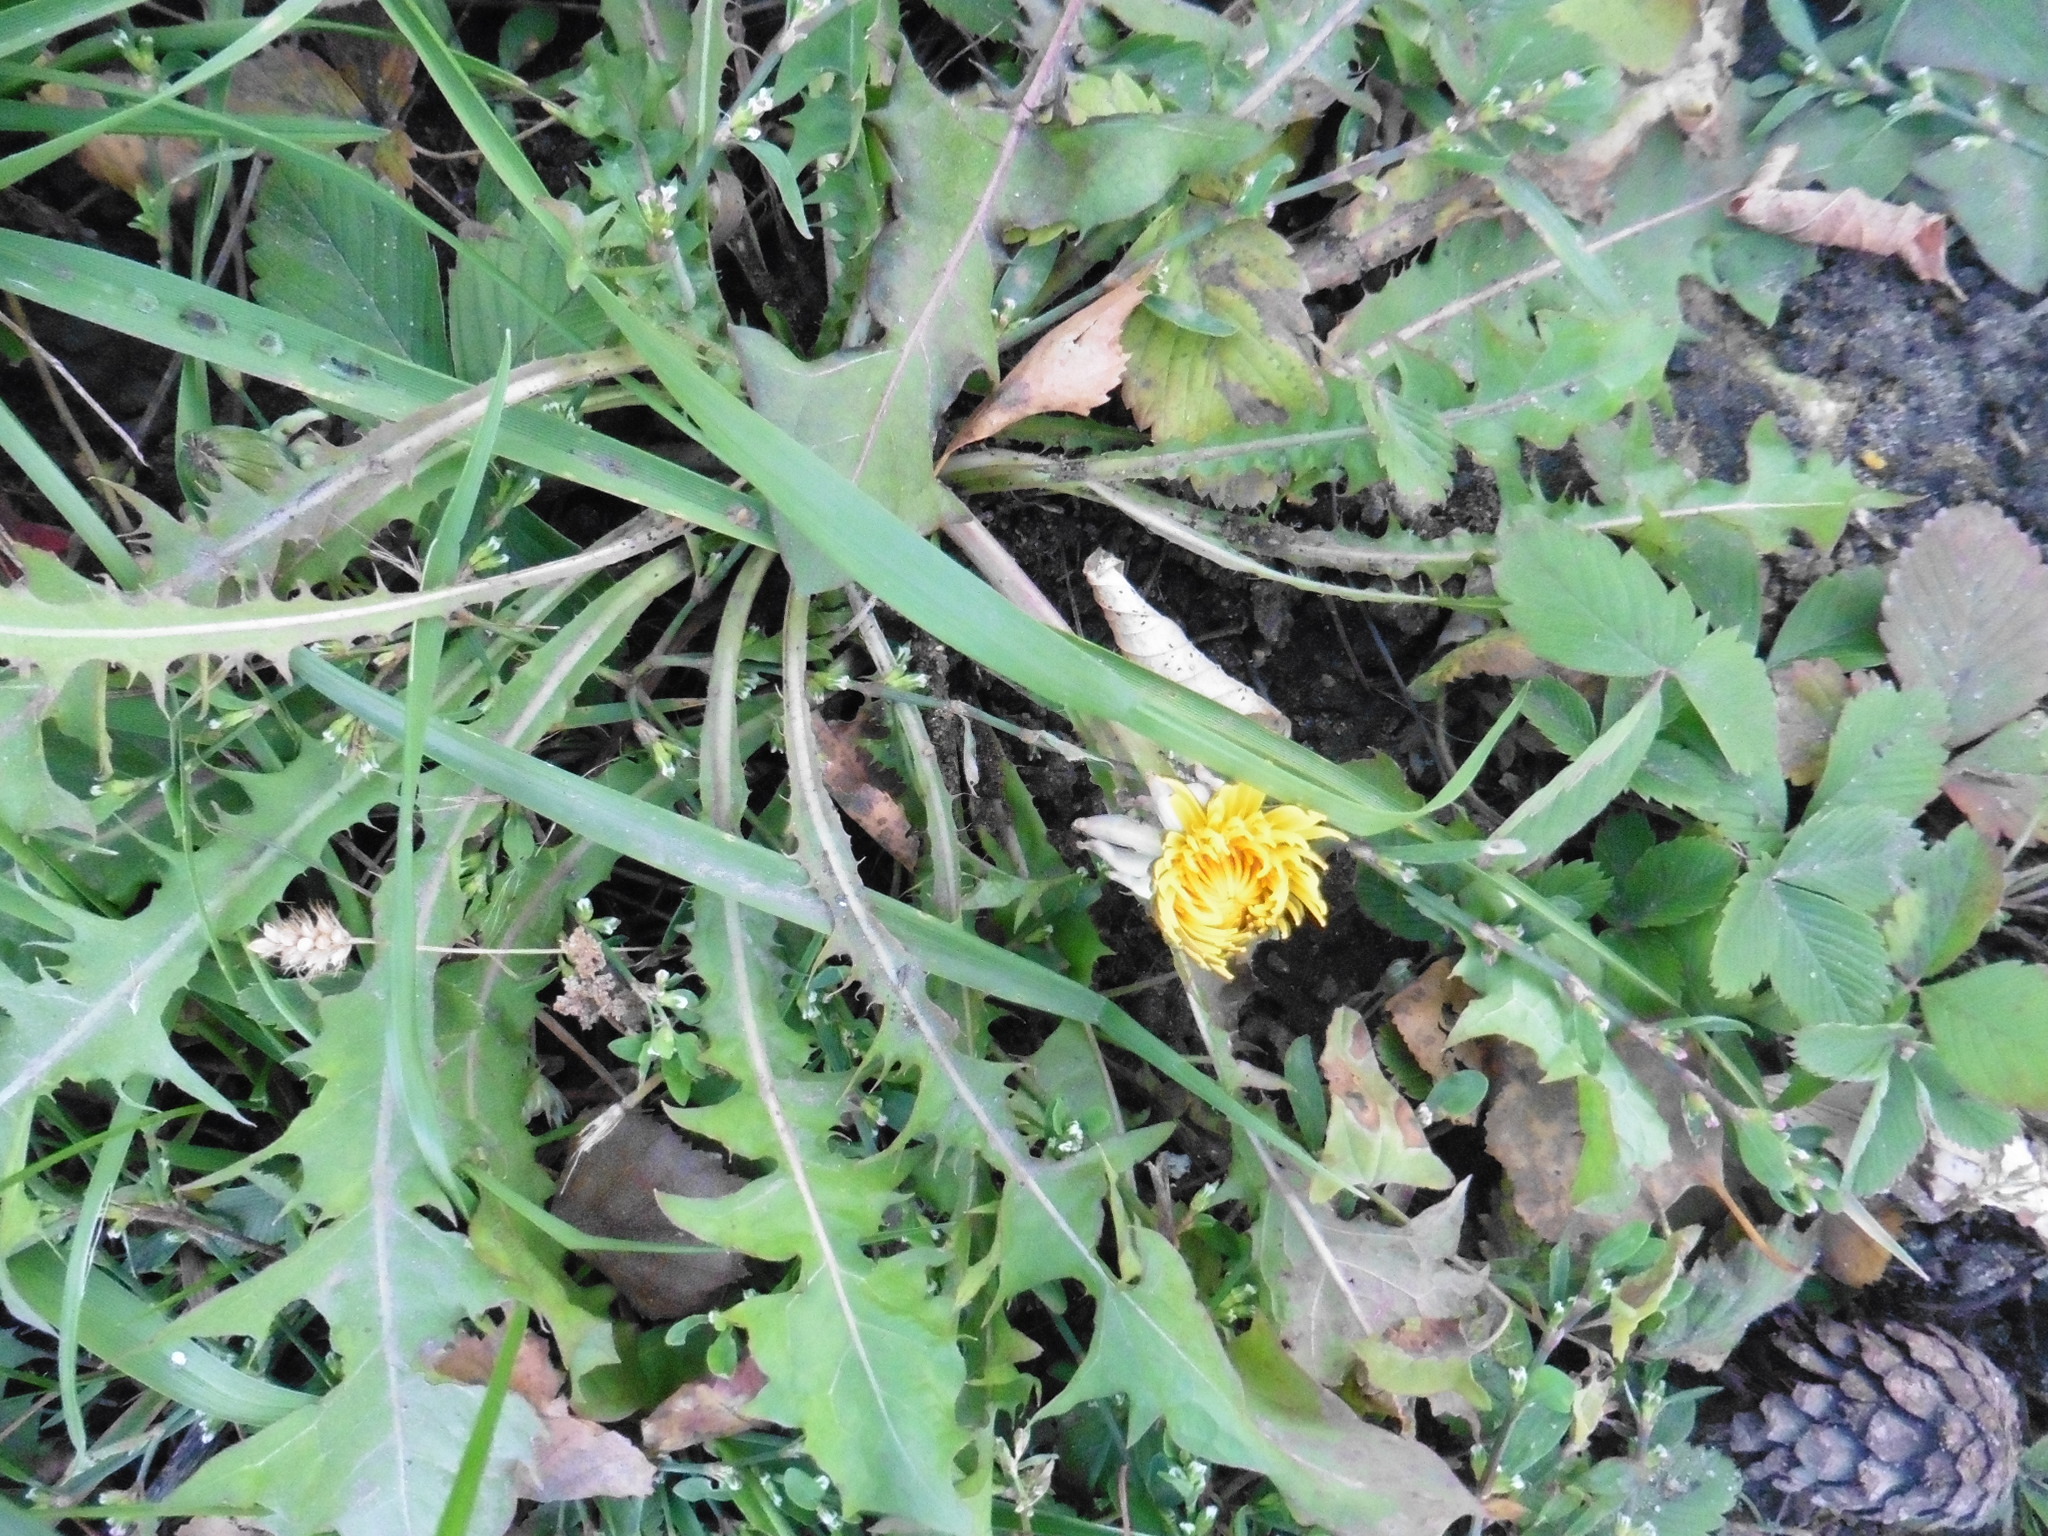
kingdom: Plantae
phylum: Tracheophyta
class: Magnoliopsida
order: Asterales
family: Asteraceae
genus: Taraxacum
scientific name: Taraxacum officinale
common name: Common dandelion
